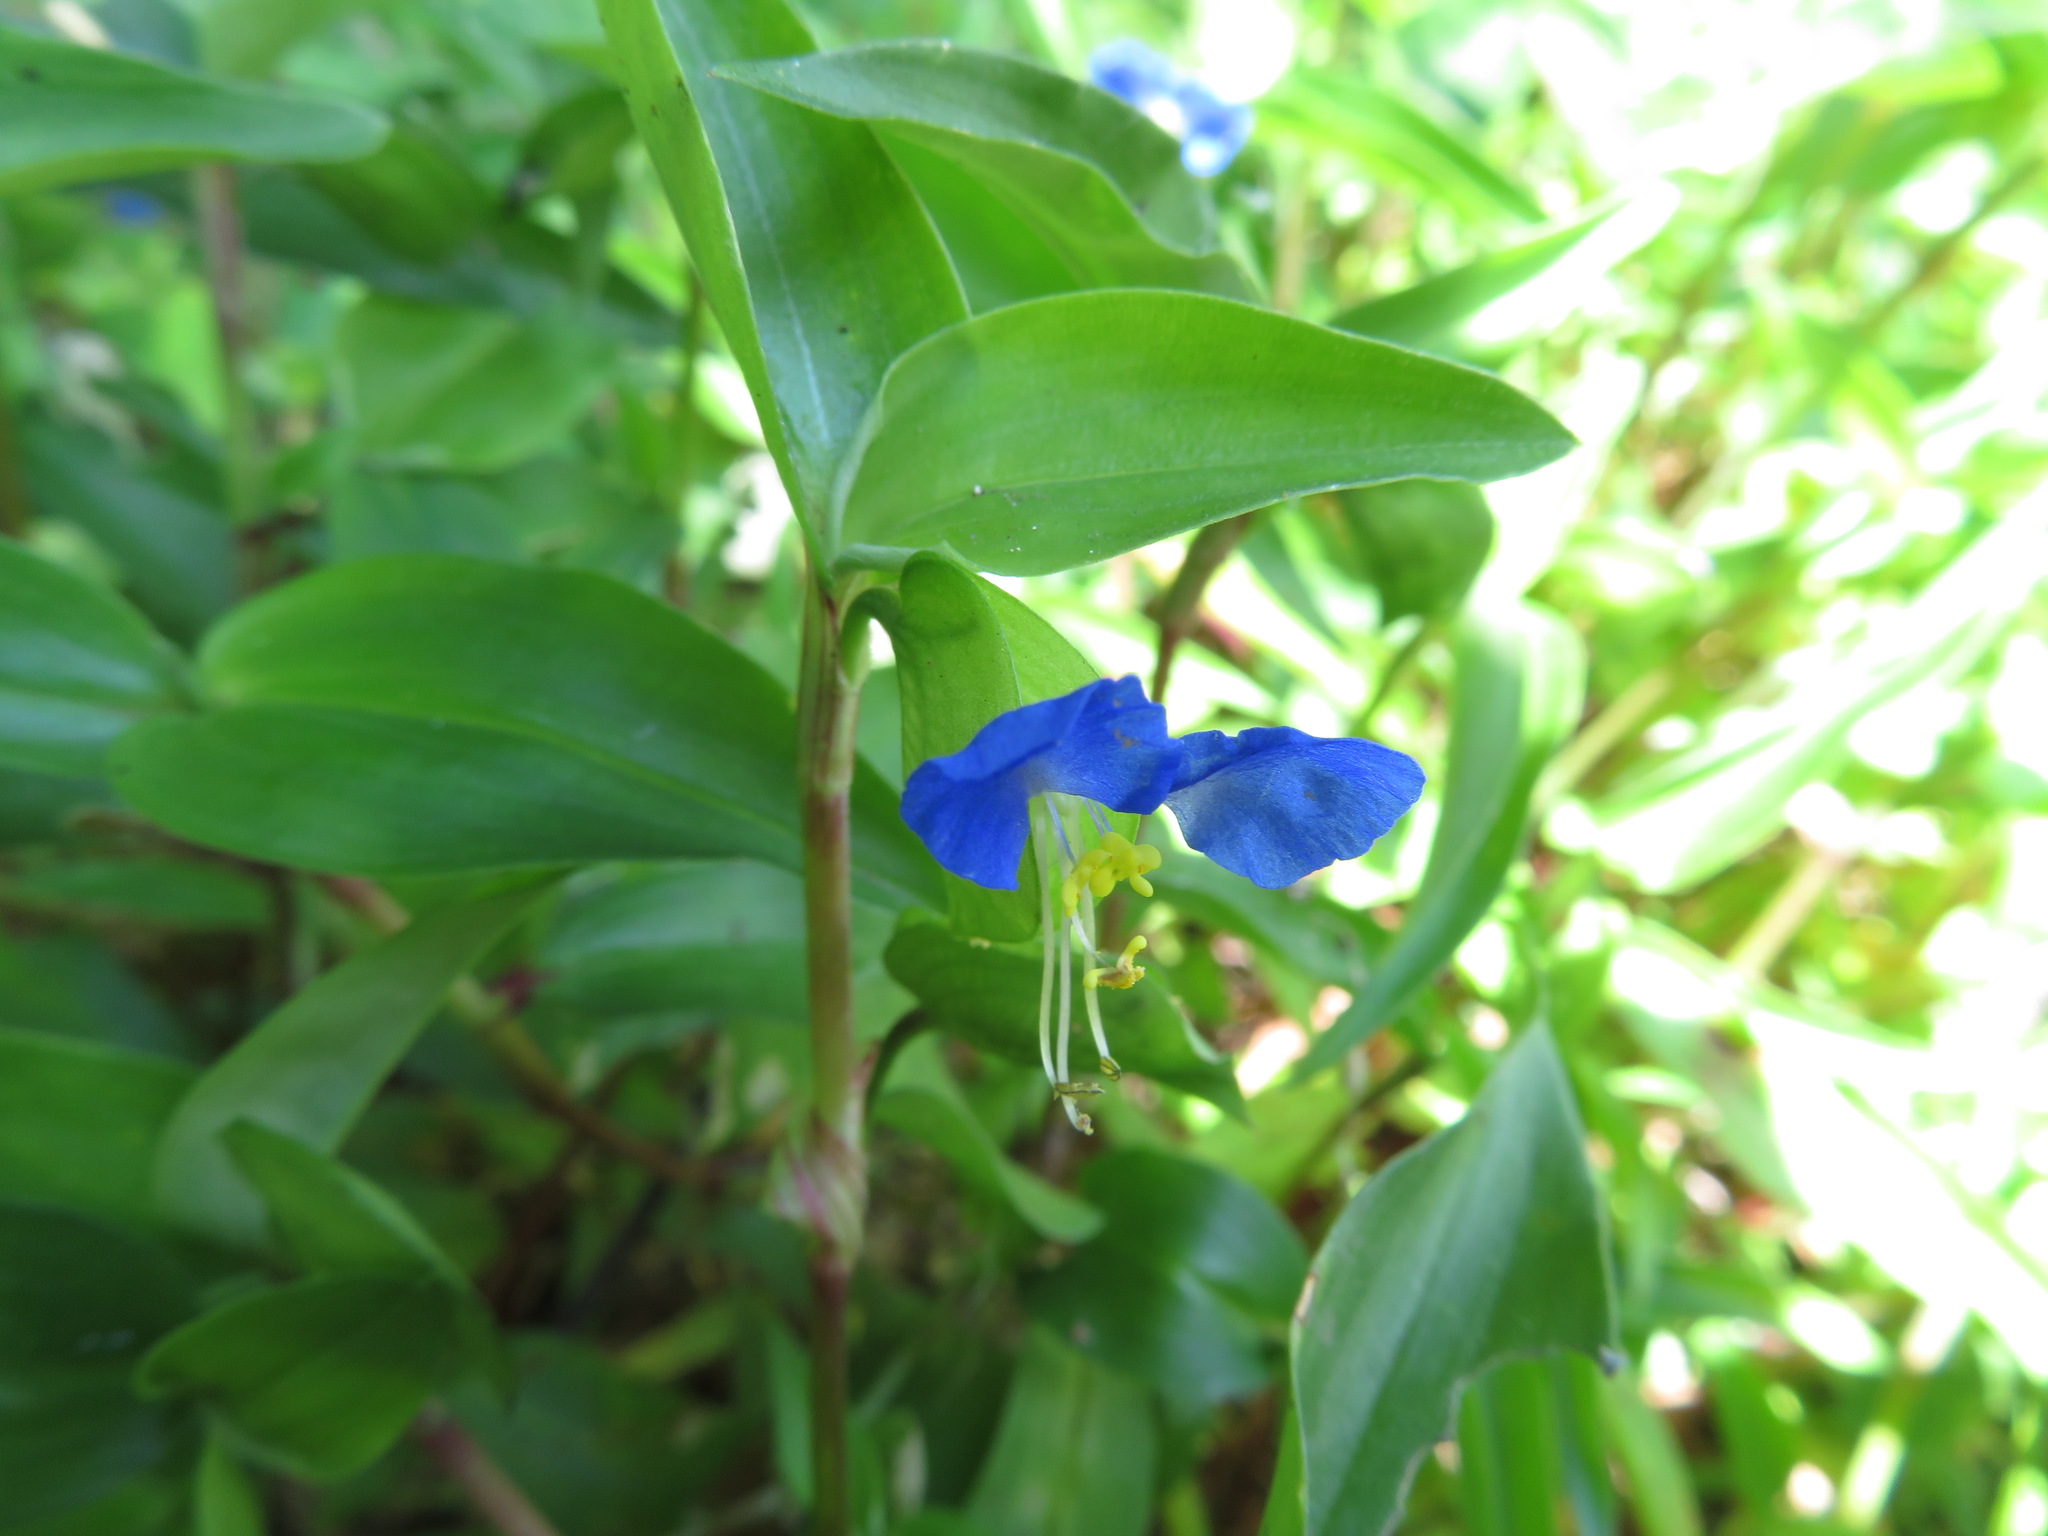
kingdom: Plantae
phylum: Tracheophyta
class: Liliopsida
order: Commelinales
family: Commelinaceae
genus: Commelina
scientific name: Commelina communis
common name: Asiatic dayflower
